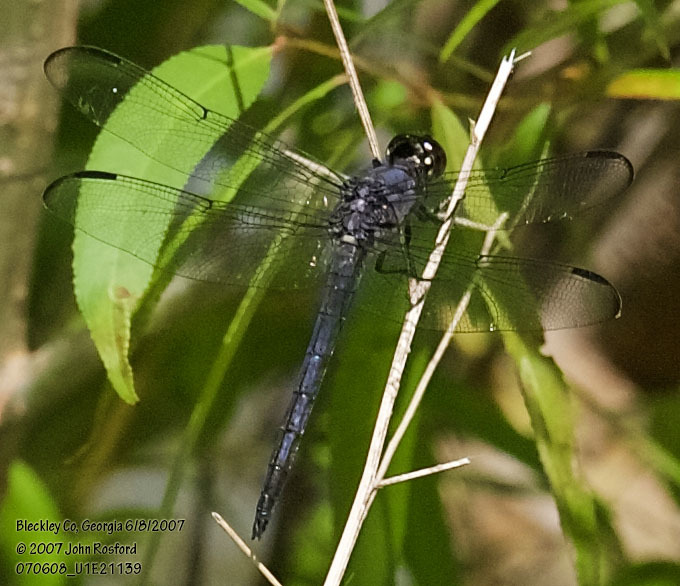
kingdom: Animalia
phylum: Arthropoda
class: Insecta
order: Odonata
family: Libellulidae
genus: Libellula
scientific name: Libellula incesta
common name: Slaty skimmer
